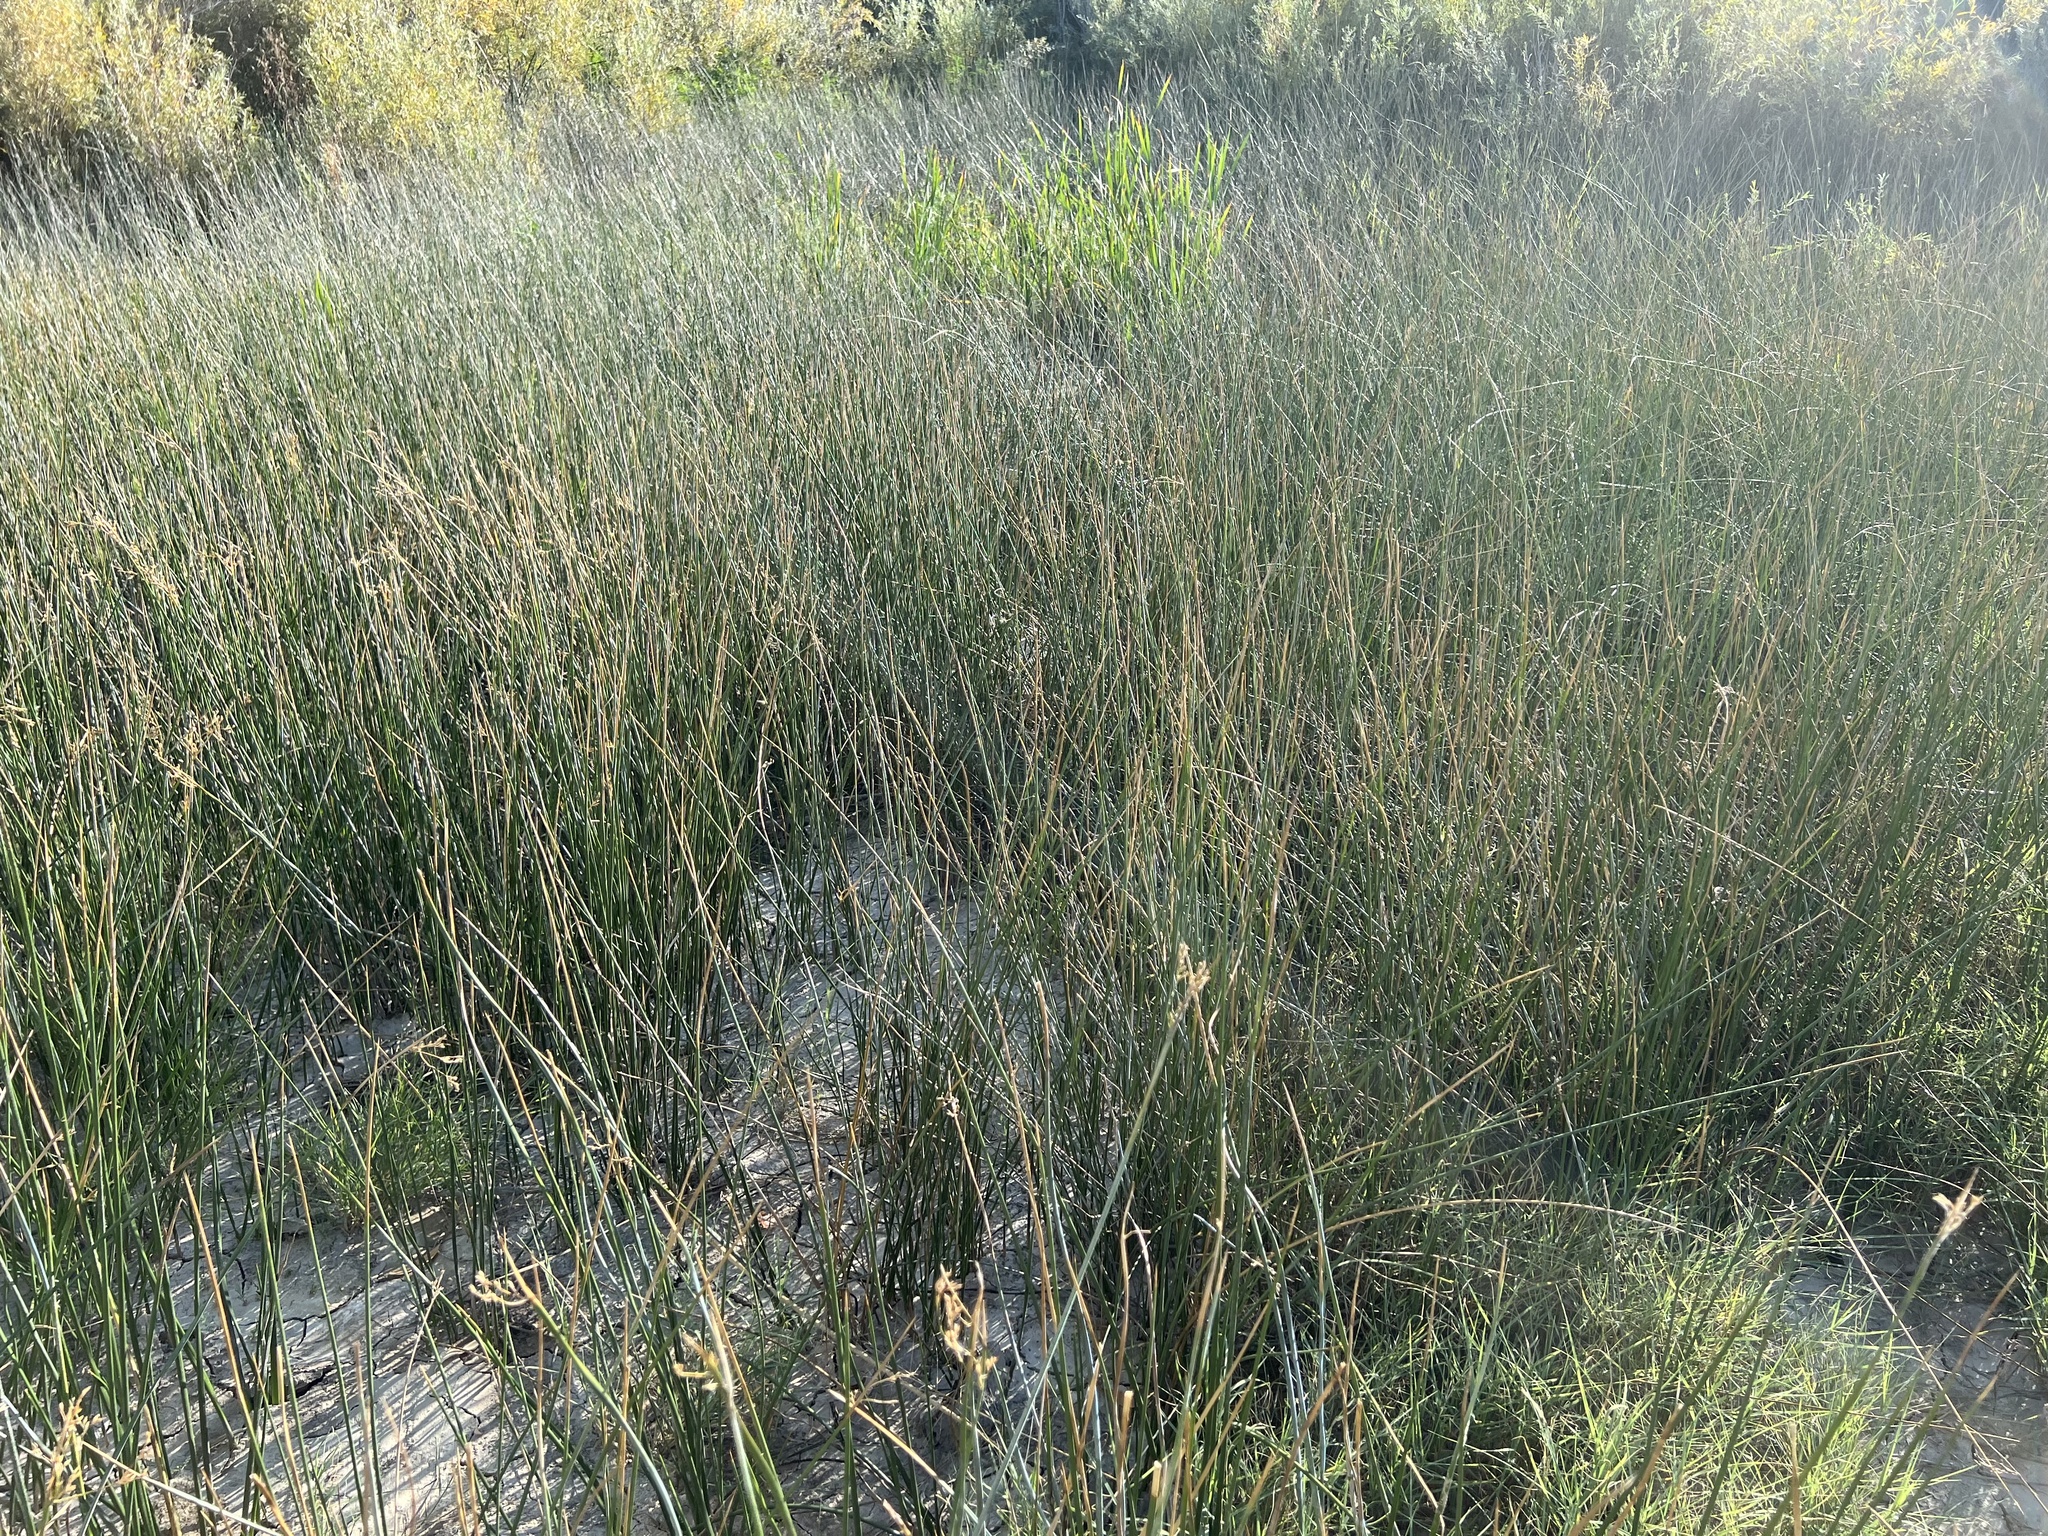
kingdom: Plantae
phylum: Tracheophyta
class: Liliopsida
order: Poales
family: Poaceae
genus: Sporobolus
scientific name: Sporobolus airoides
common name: Alkali sacaton
